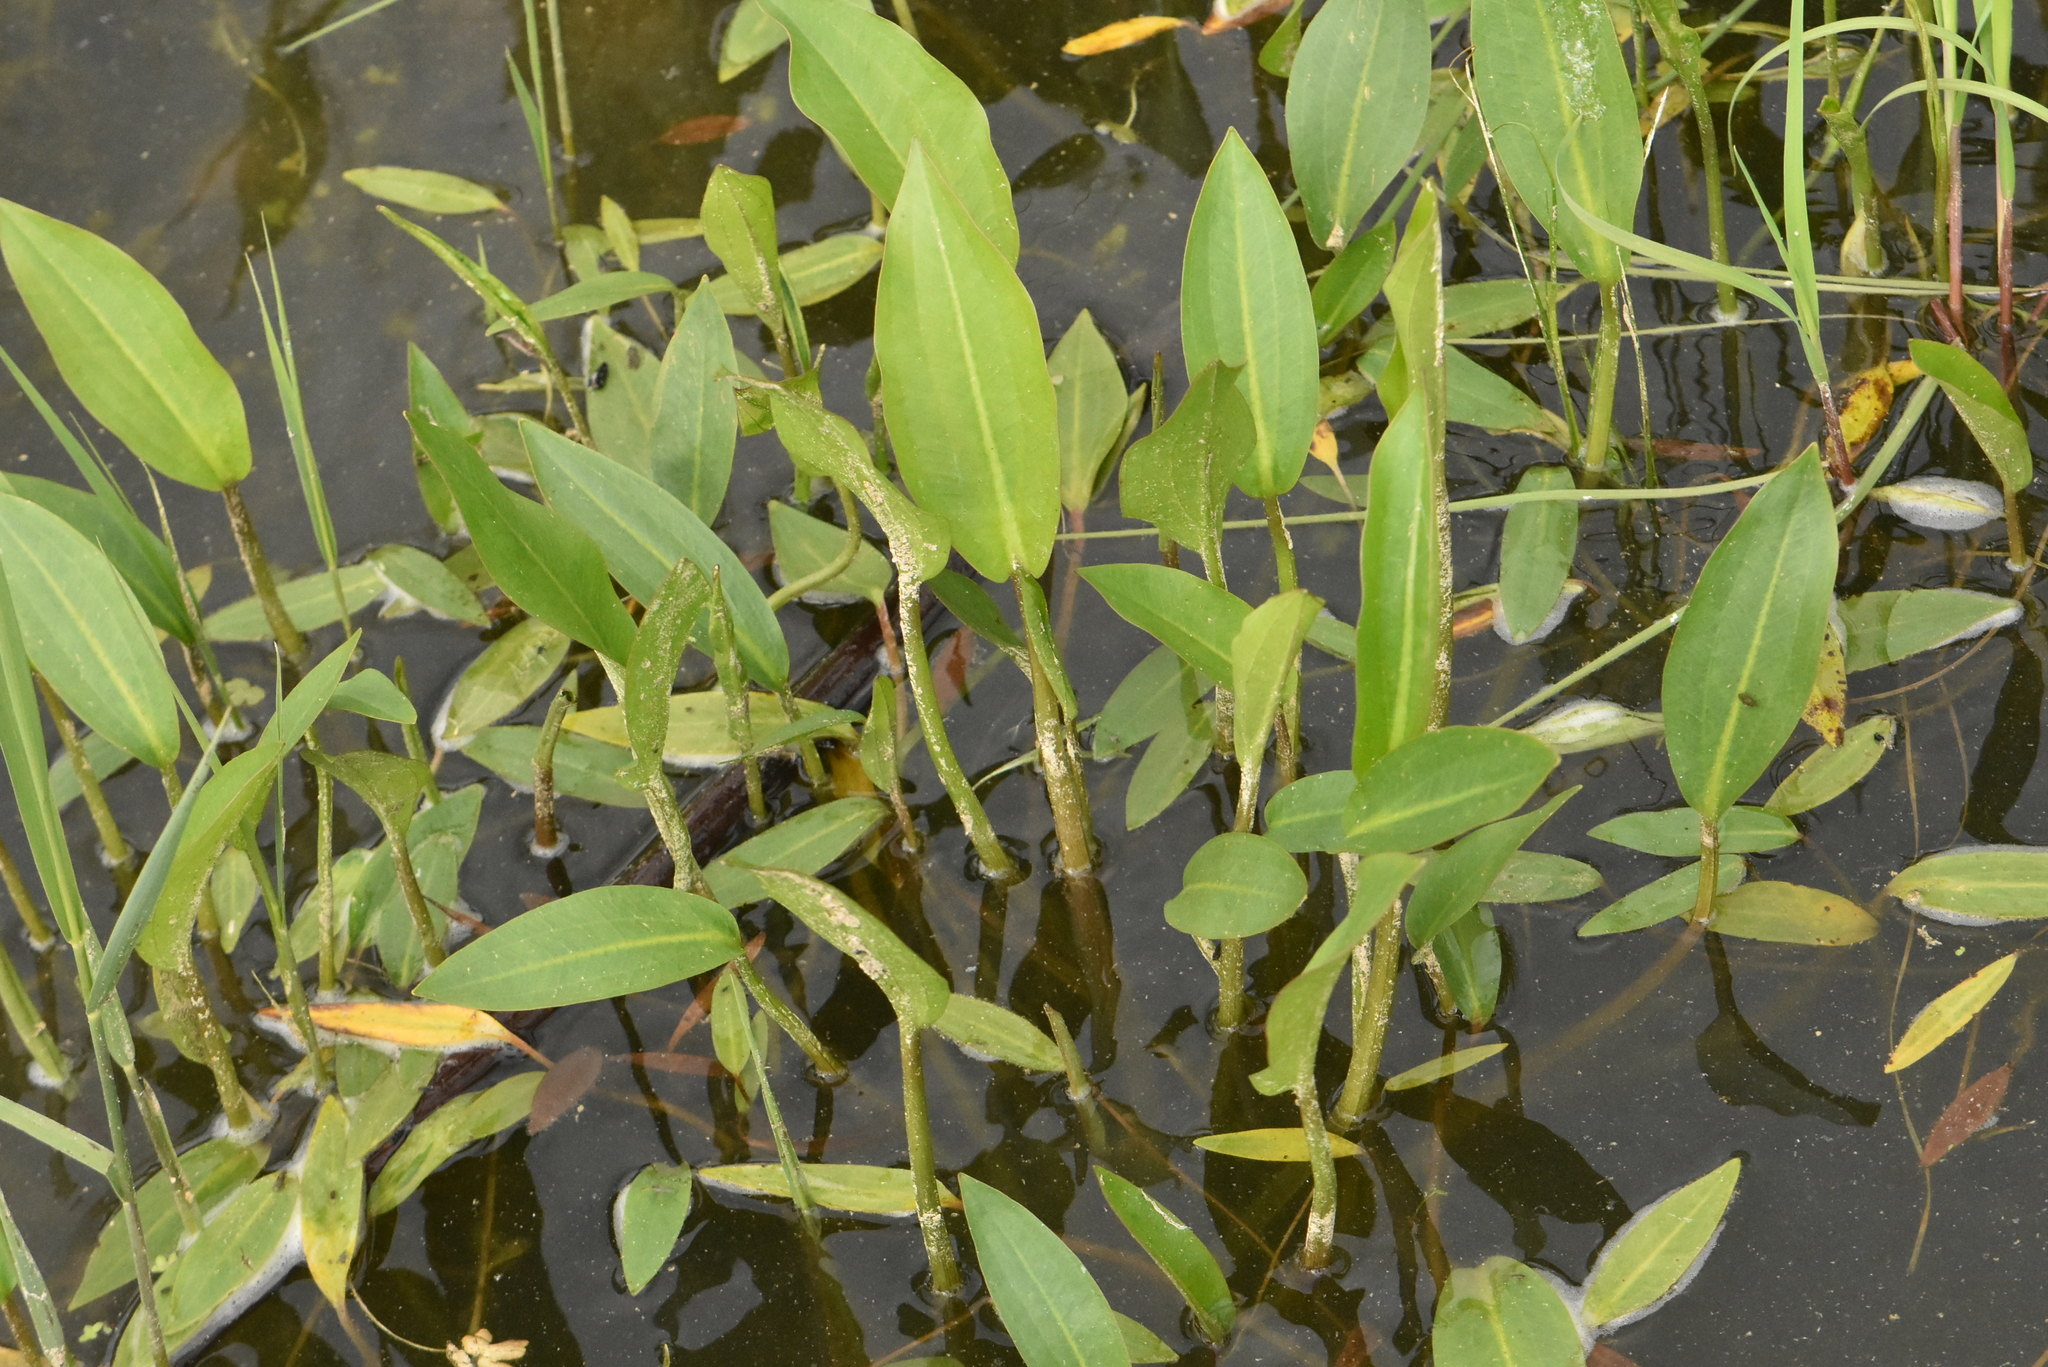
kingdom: Plantae
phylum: Tracheophyta
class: Liliopsida
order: Alismatales
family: Alismataceae
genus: Alisma
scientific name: Alisma plantago-aquatica
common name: Water-plantain
